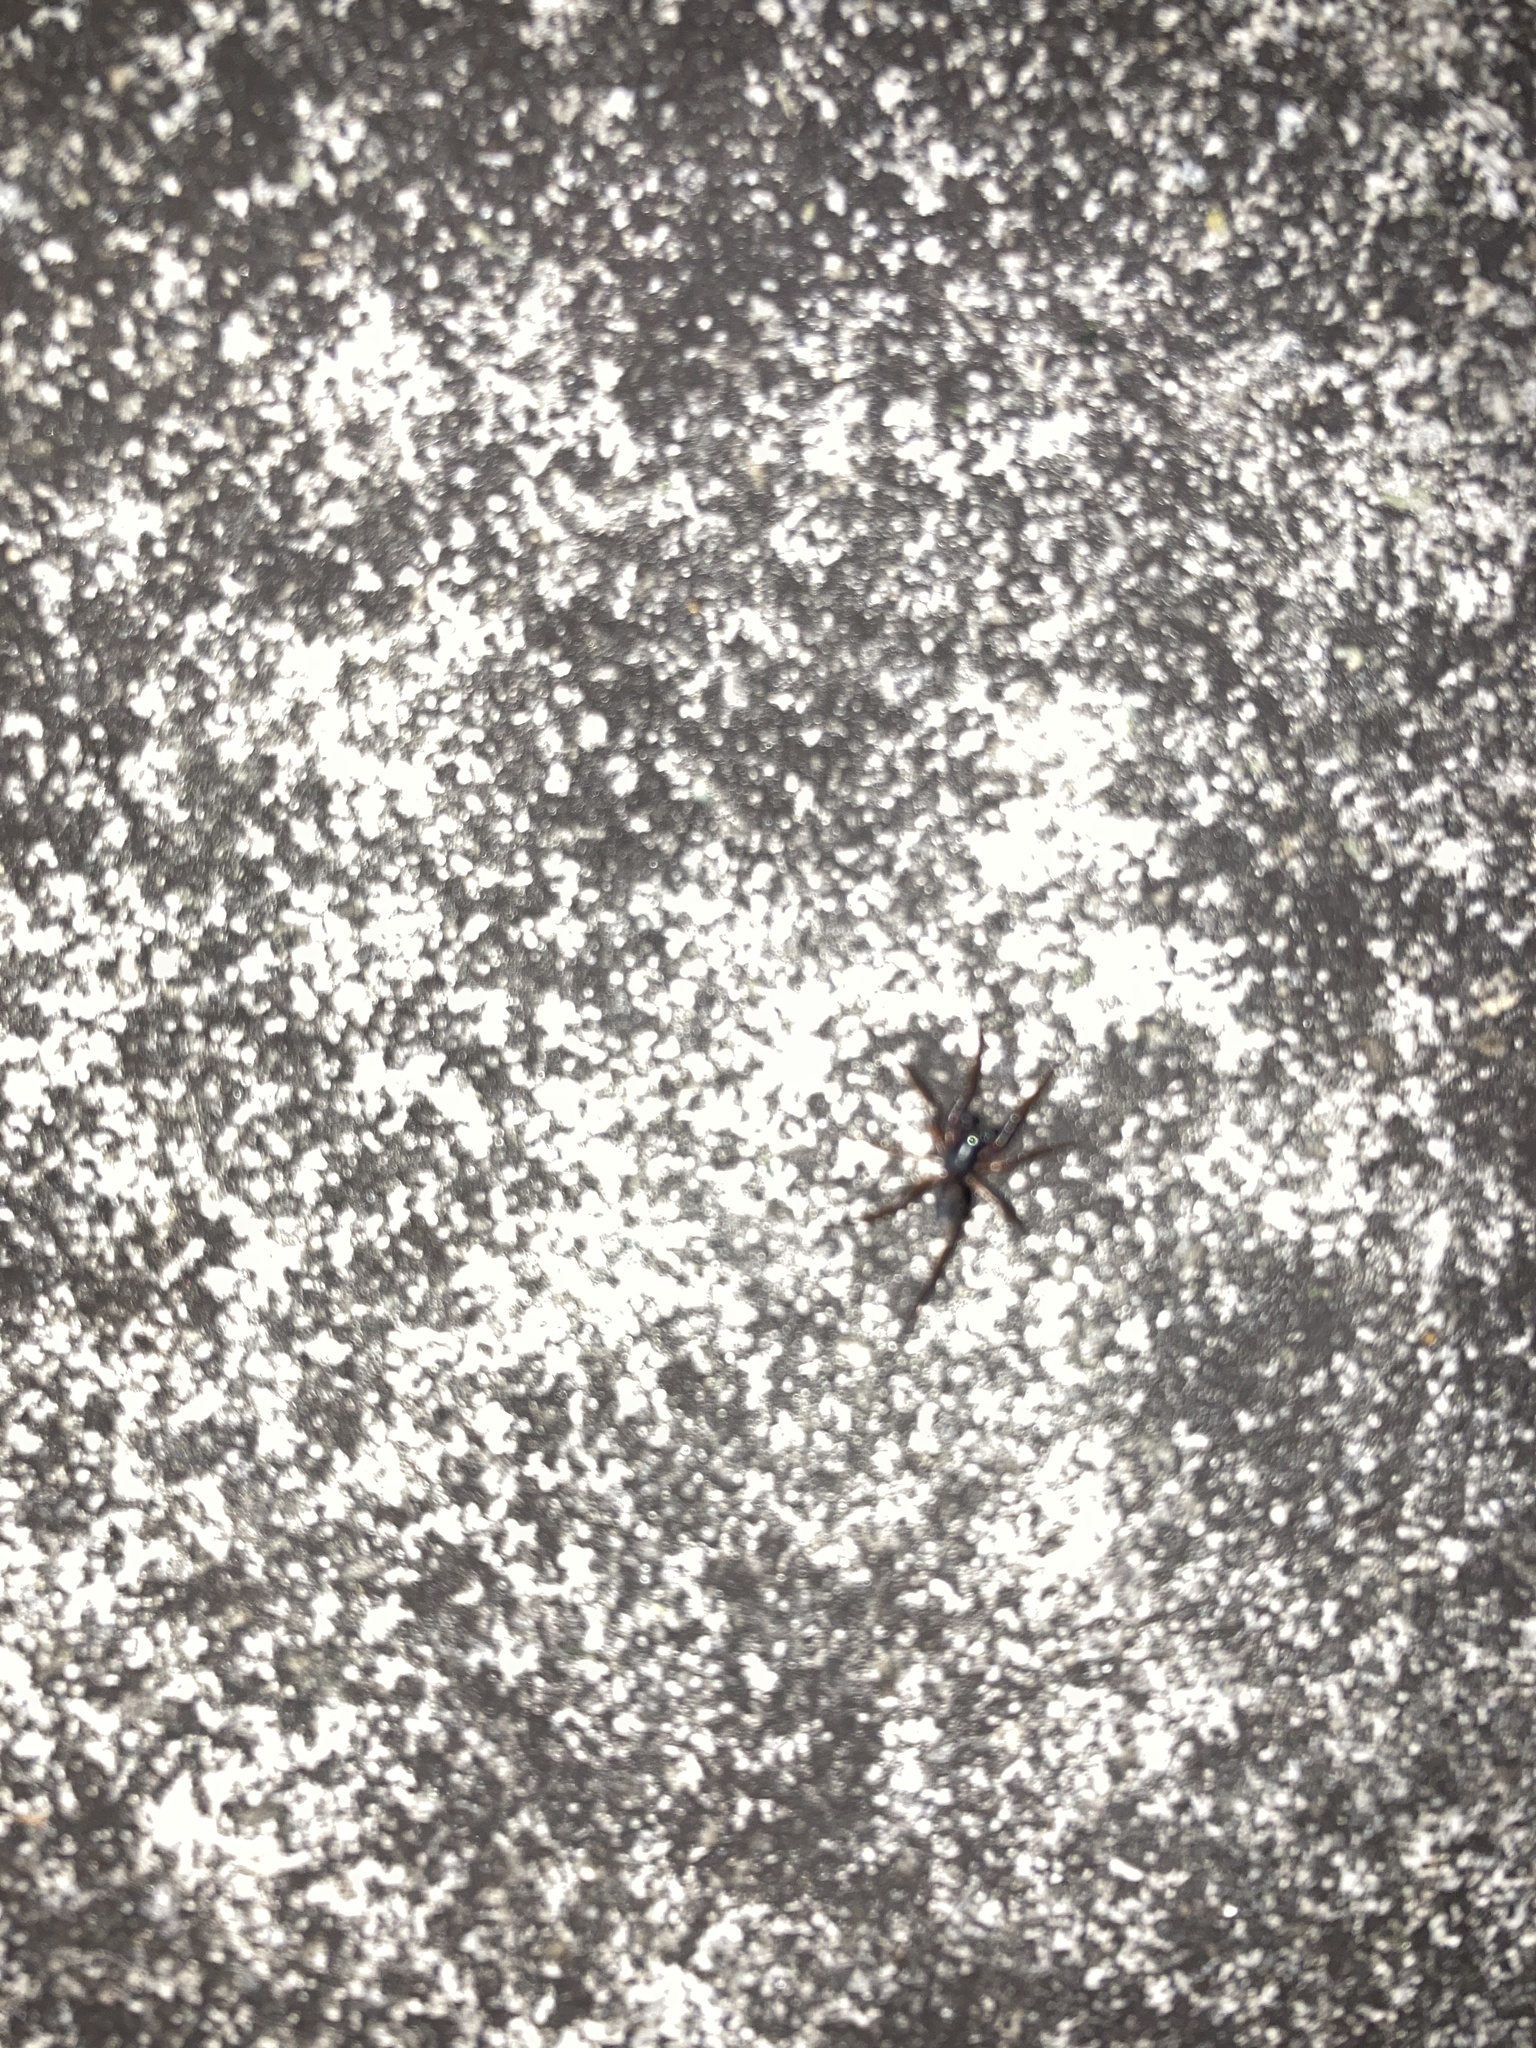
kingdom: Animalia
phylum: Arthropoda
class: Arachnida
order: Araneae
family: Corinnidae
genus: Falconina
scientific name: Falconina gracilis
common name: Antmimic spider
